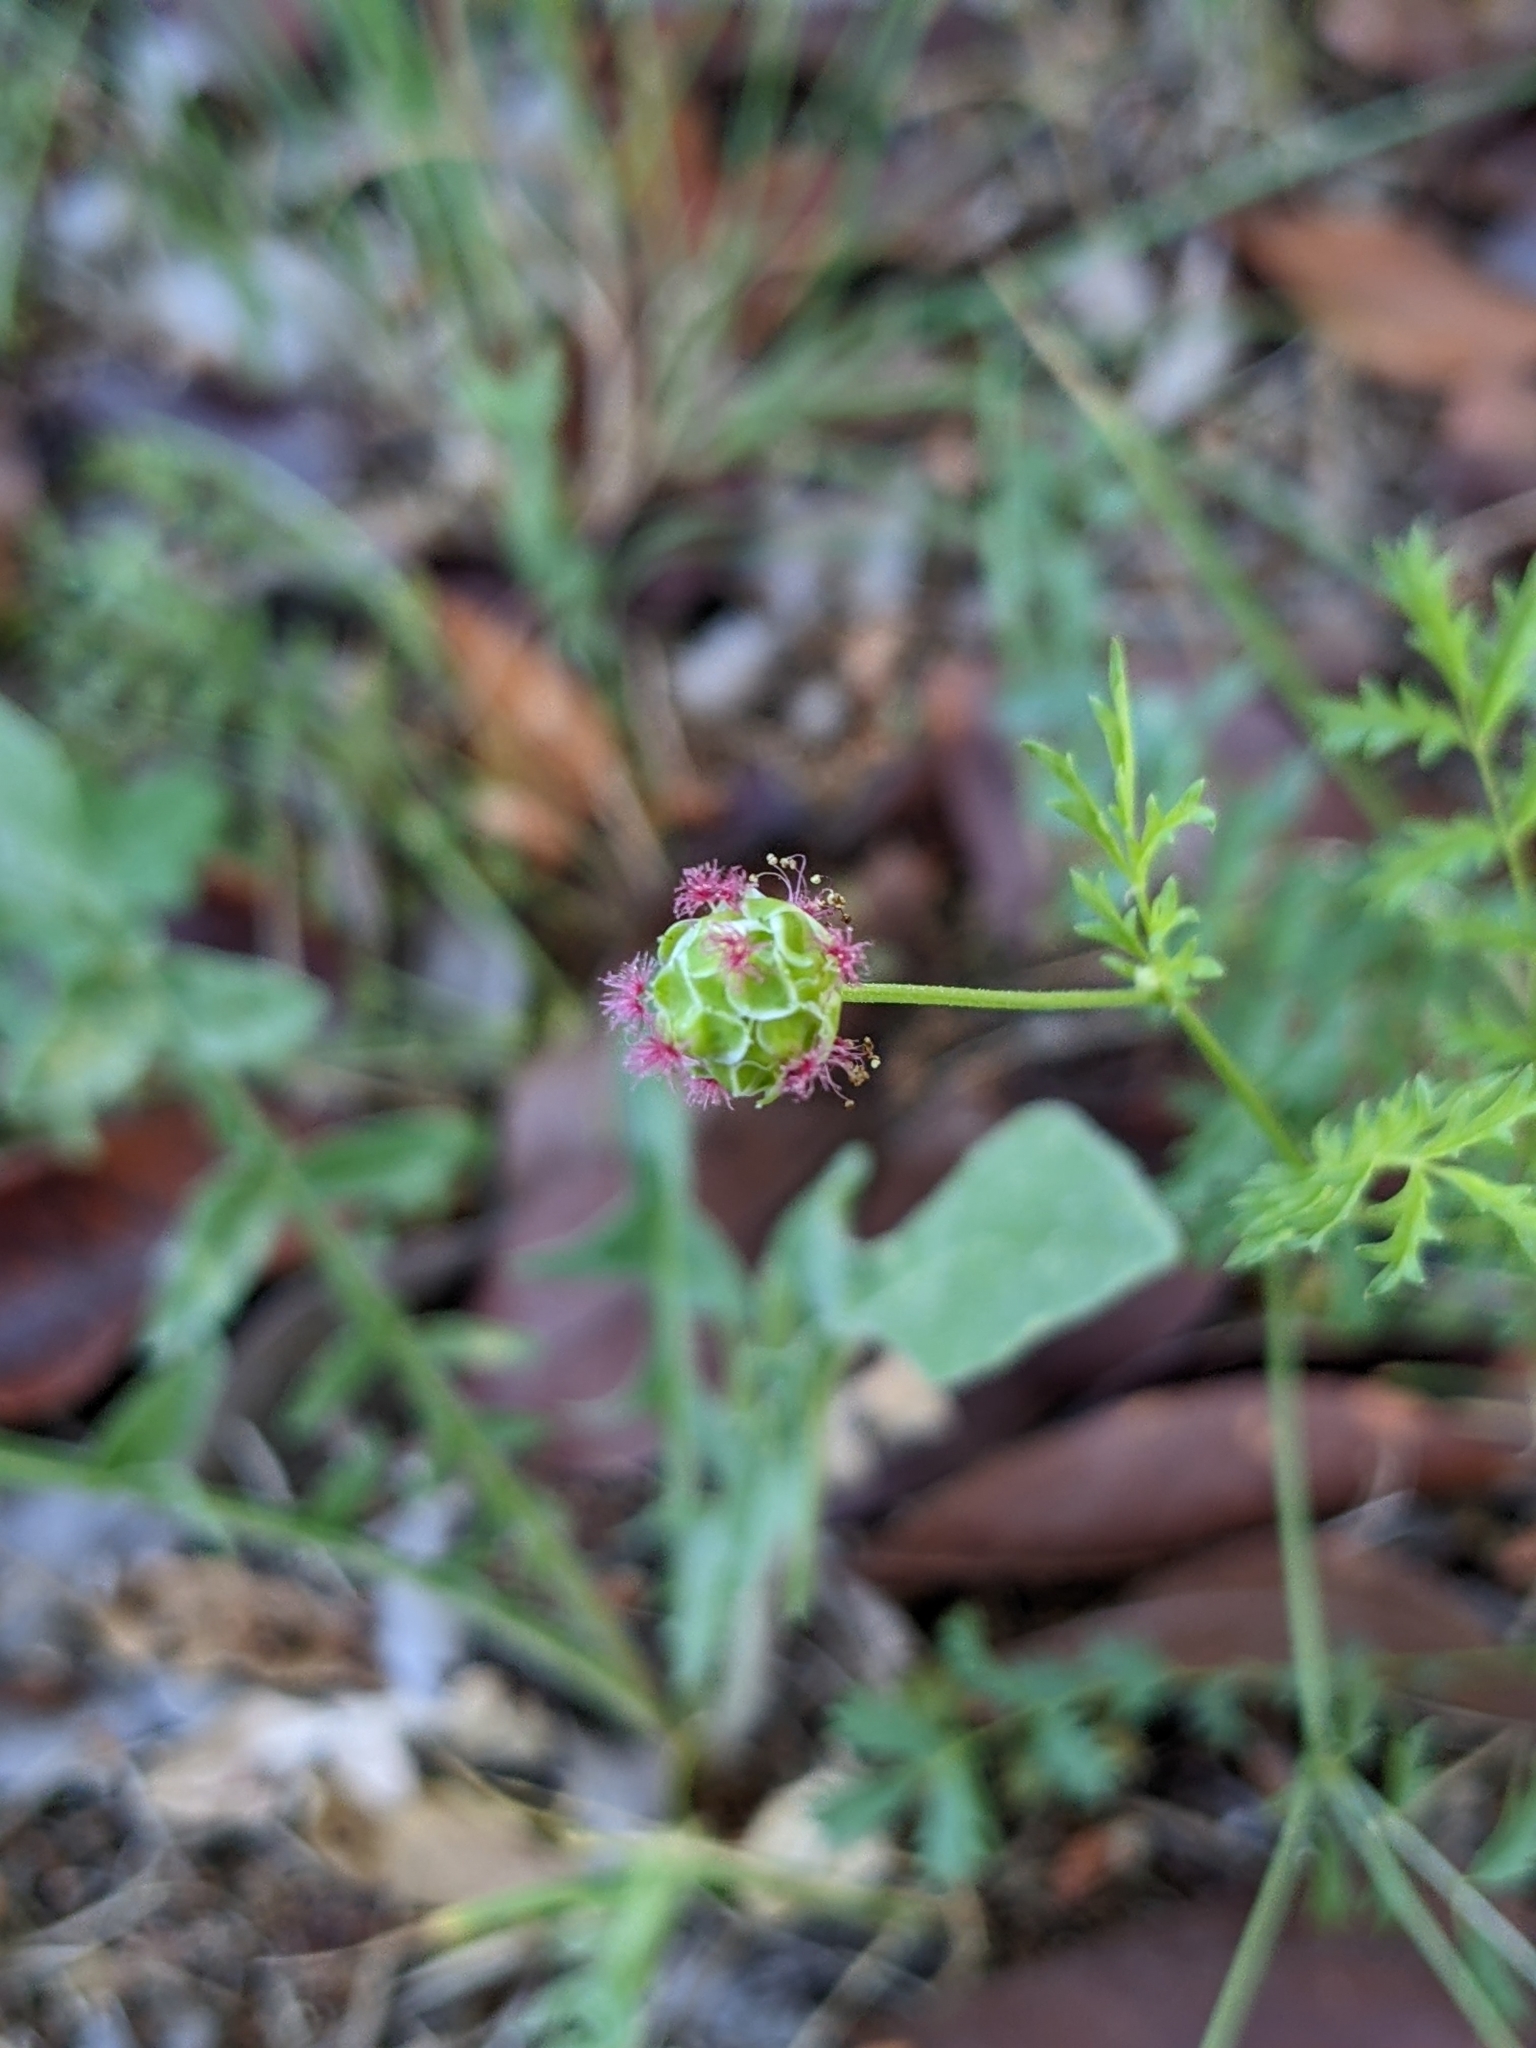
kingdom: Plantae
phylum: Tracheophyta
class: Magnoliopsida
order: Rosales
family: Rosaceae
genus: Poterium
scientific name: Poterium sanguisorba
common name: Salad burnet
